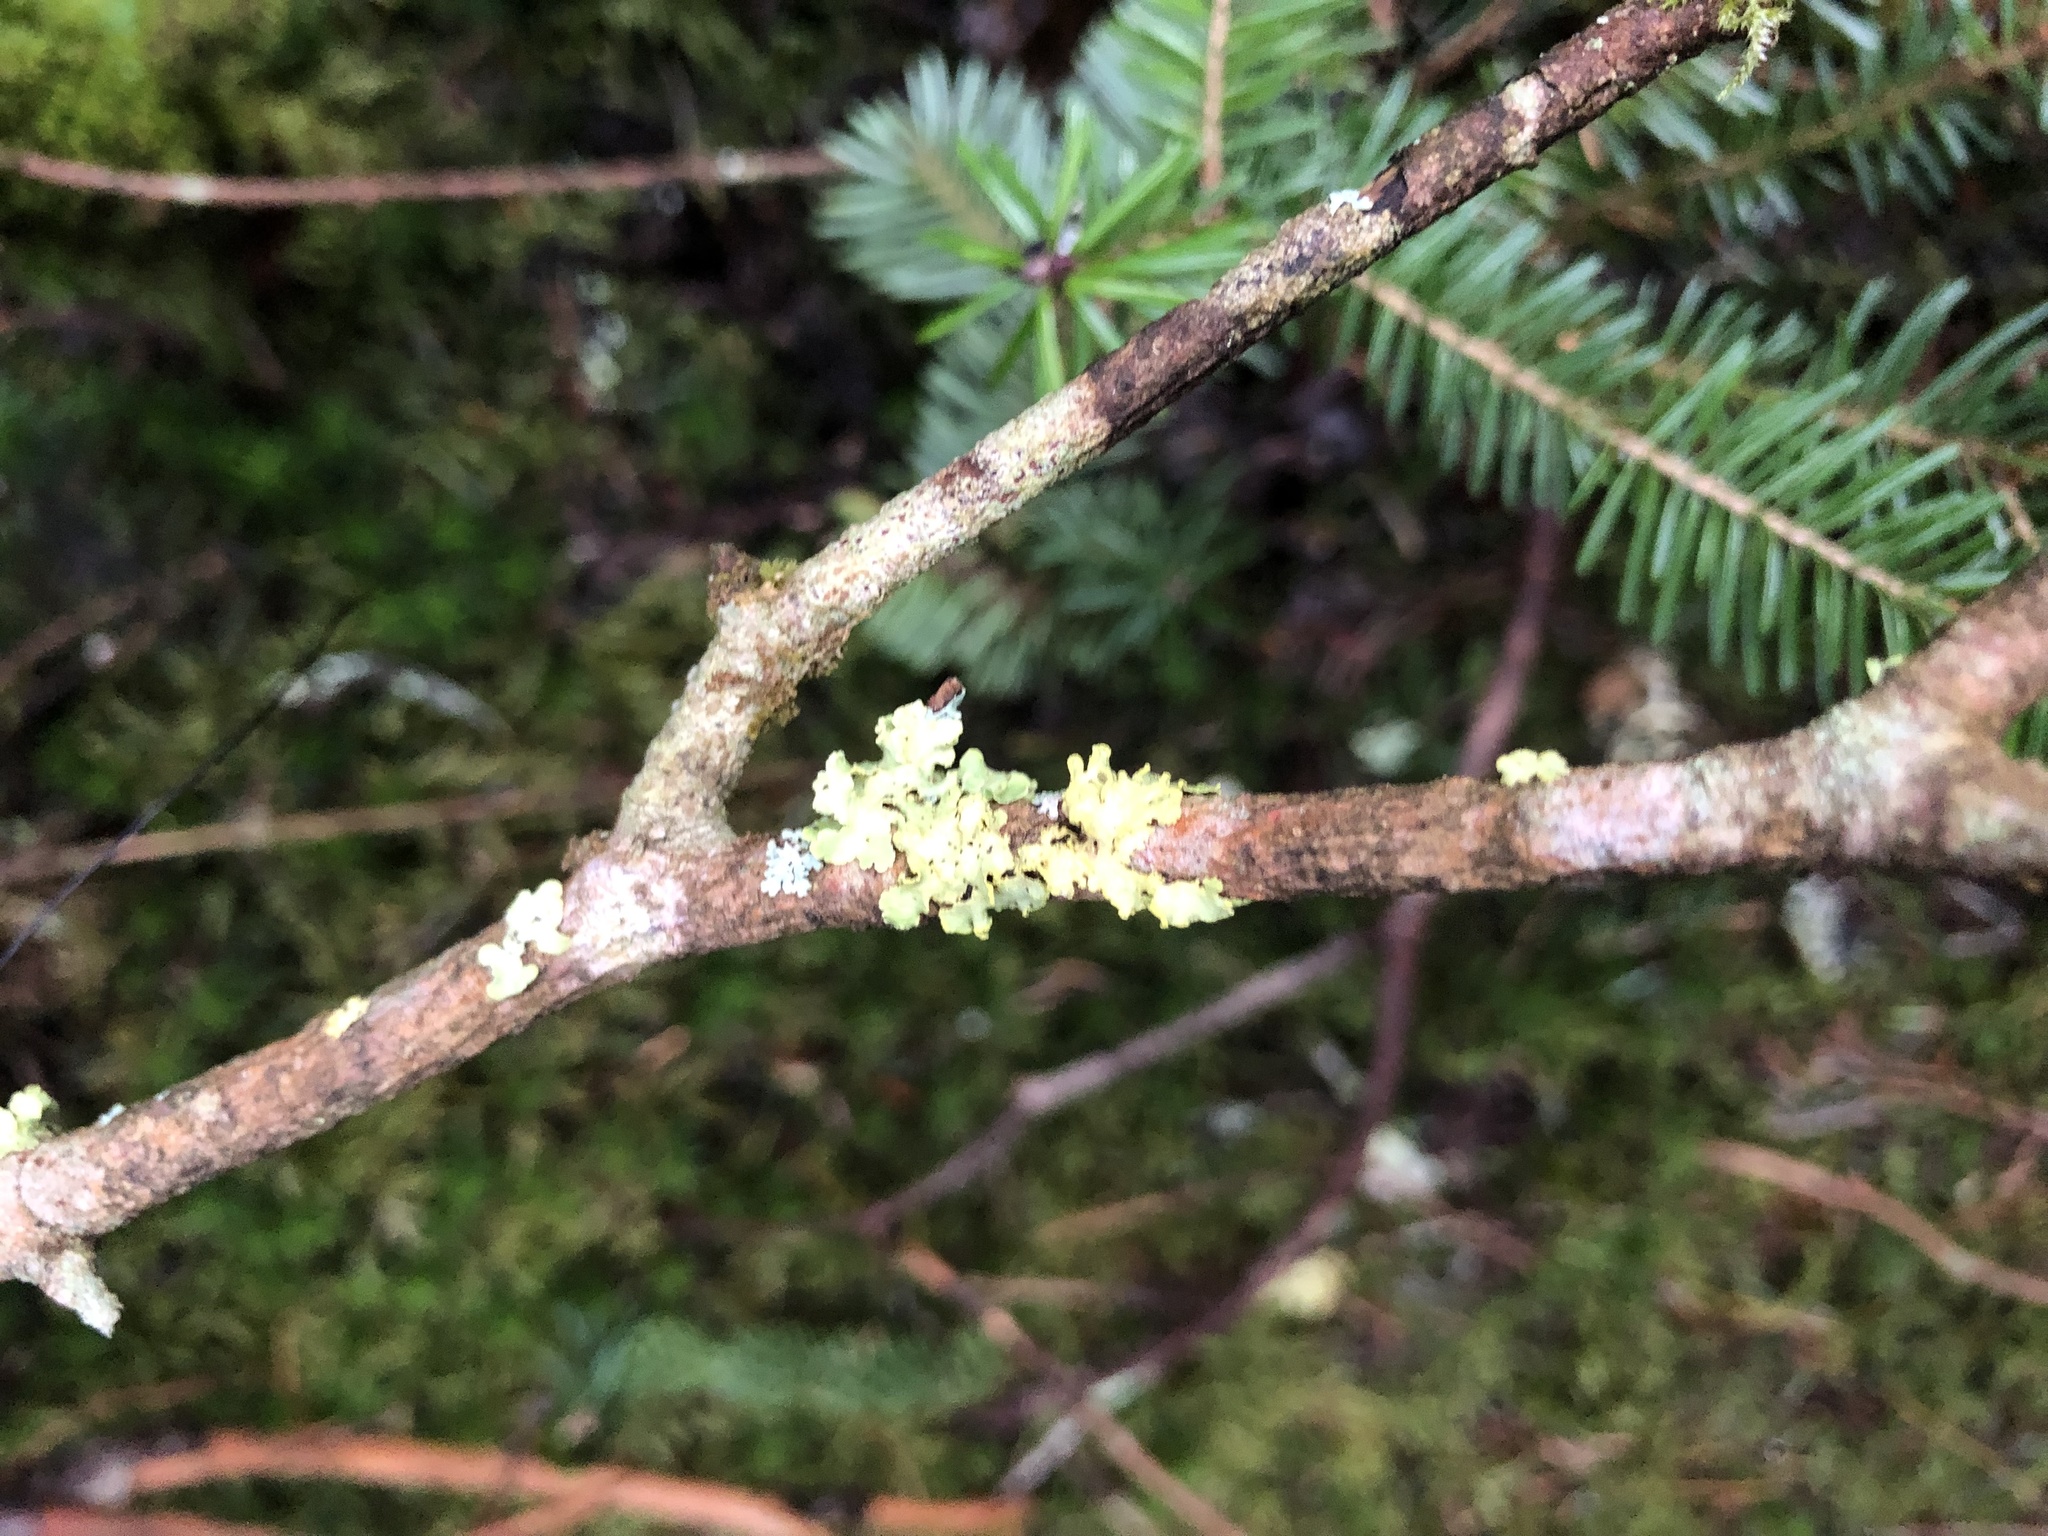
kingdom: Fungi
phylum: Ascomycota
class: Lecanoromycetes
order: Lecanorales
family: Parmeliaceae
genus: Vulpicida
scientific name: Vulpicida pinastri
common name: Powdered sunshine lichen
